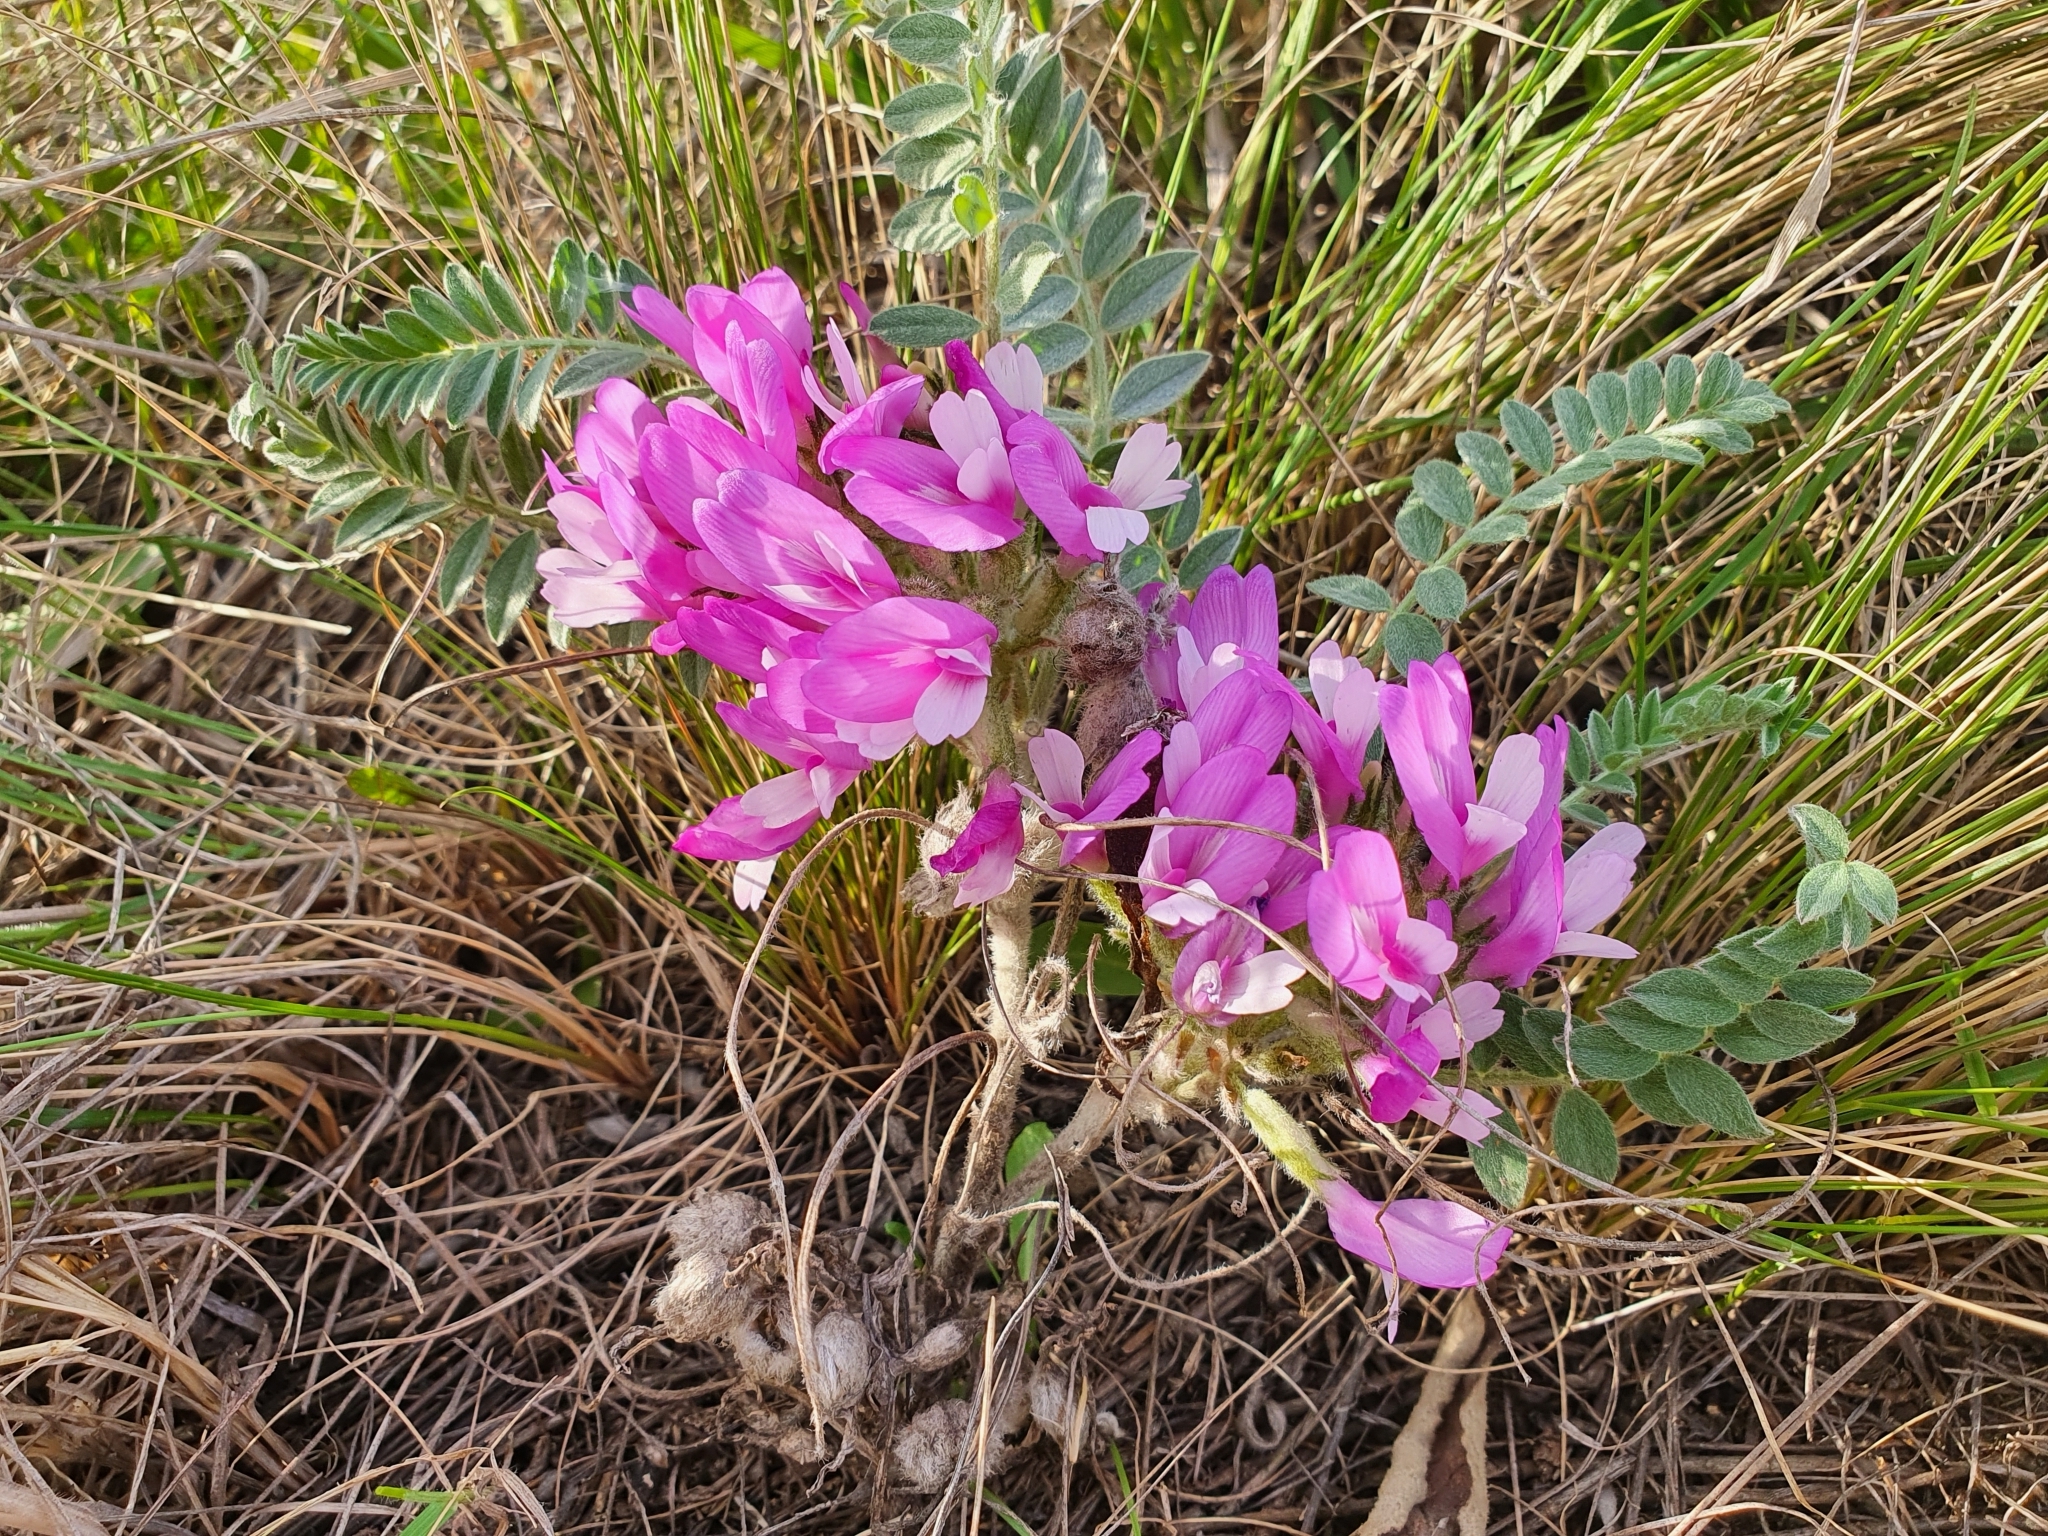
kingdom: Plantae
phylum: Tracheophyta
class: Magnoliopsida
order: Fabales
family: Fabaceae
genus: Astragalus
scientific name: Astragalus testiculatus
